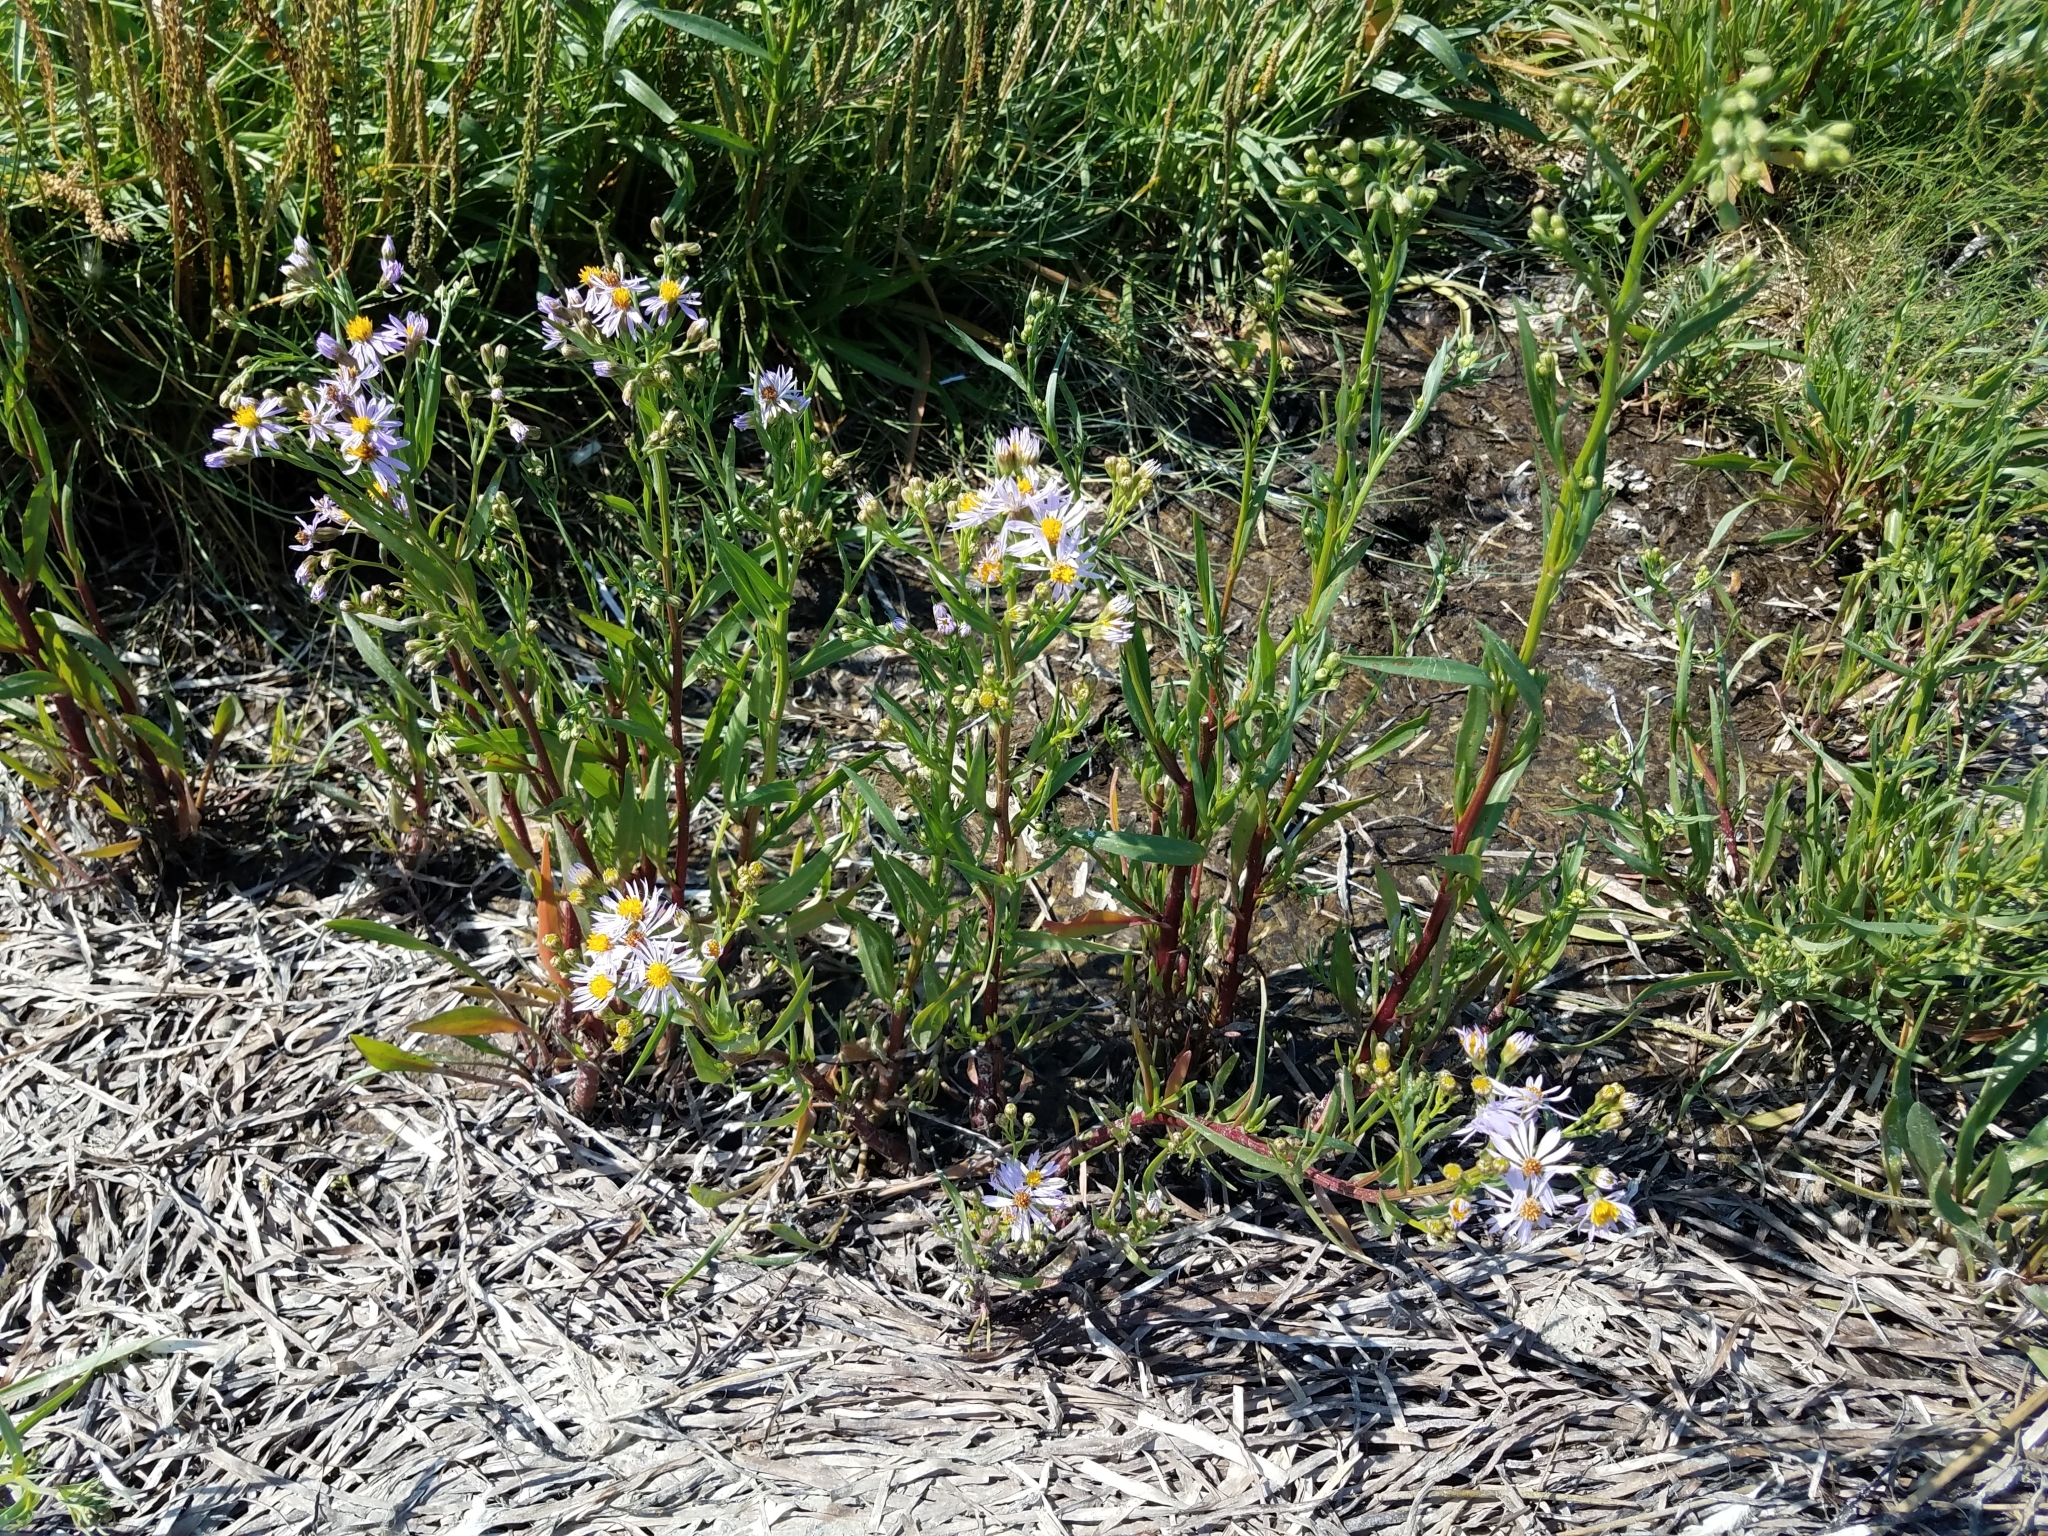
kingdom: Plantae
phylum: Tracheophyta
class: Magnoliopsida
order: Asterales
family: Asteraceae
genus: Tripolium
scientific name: Tripolium pannonicum
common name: Sea aster
